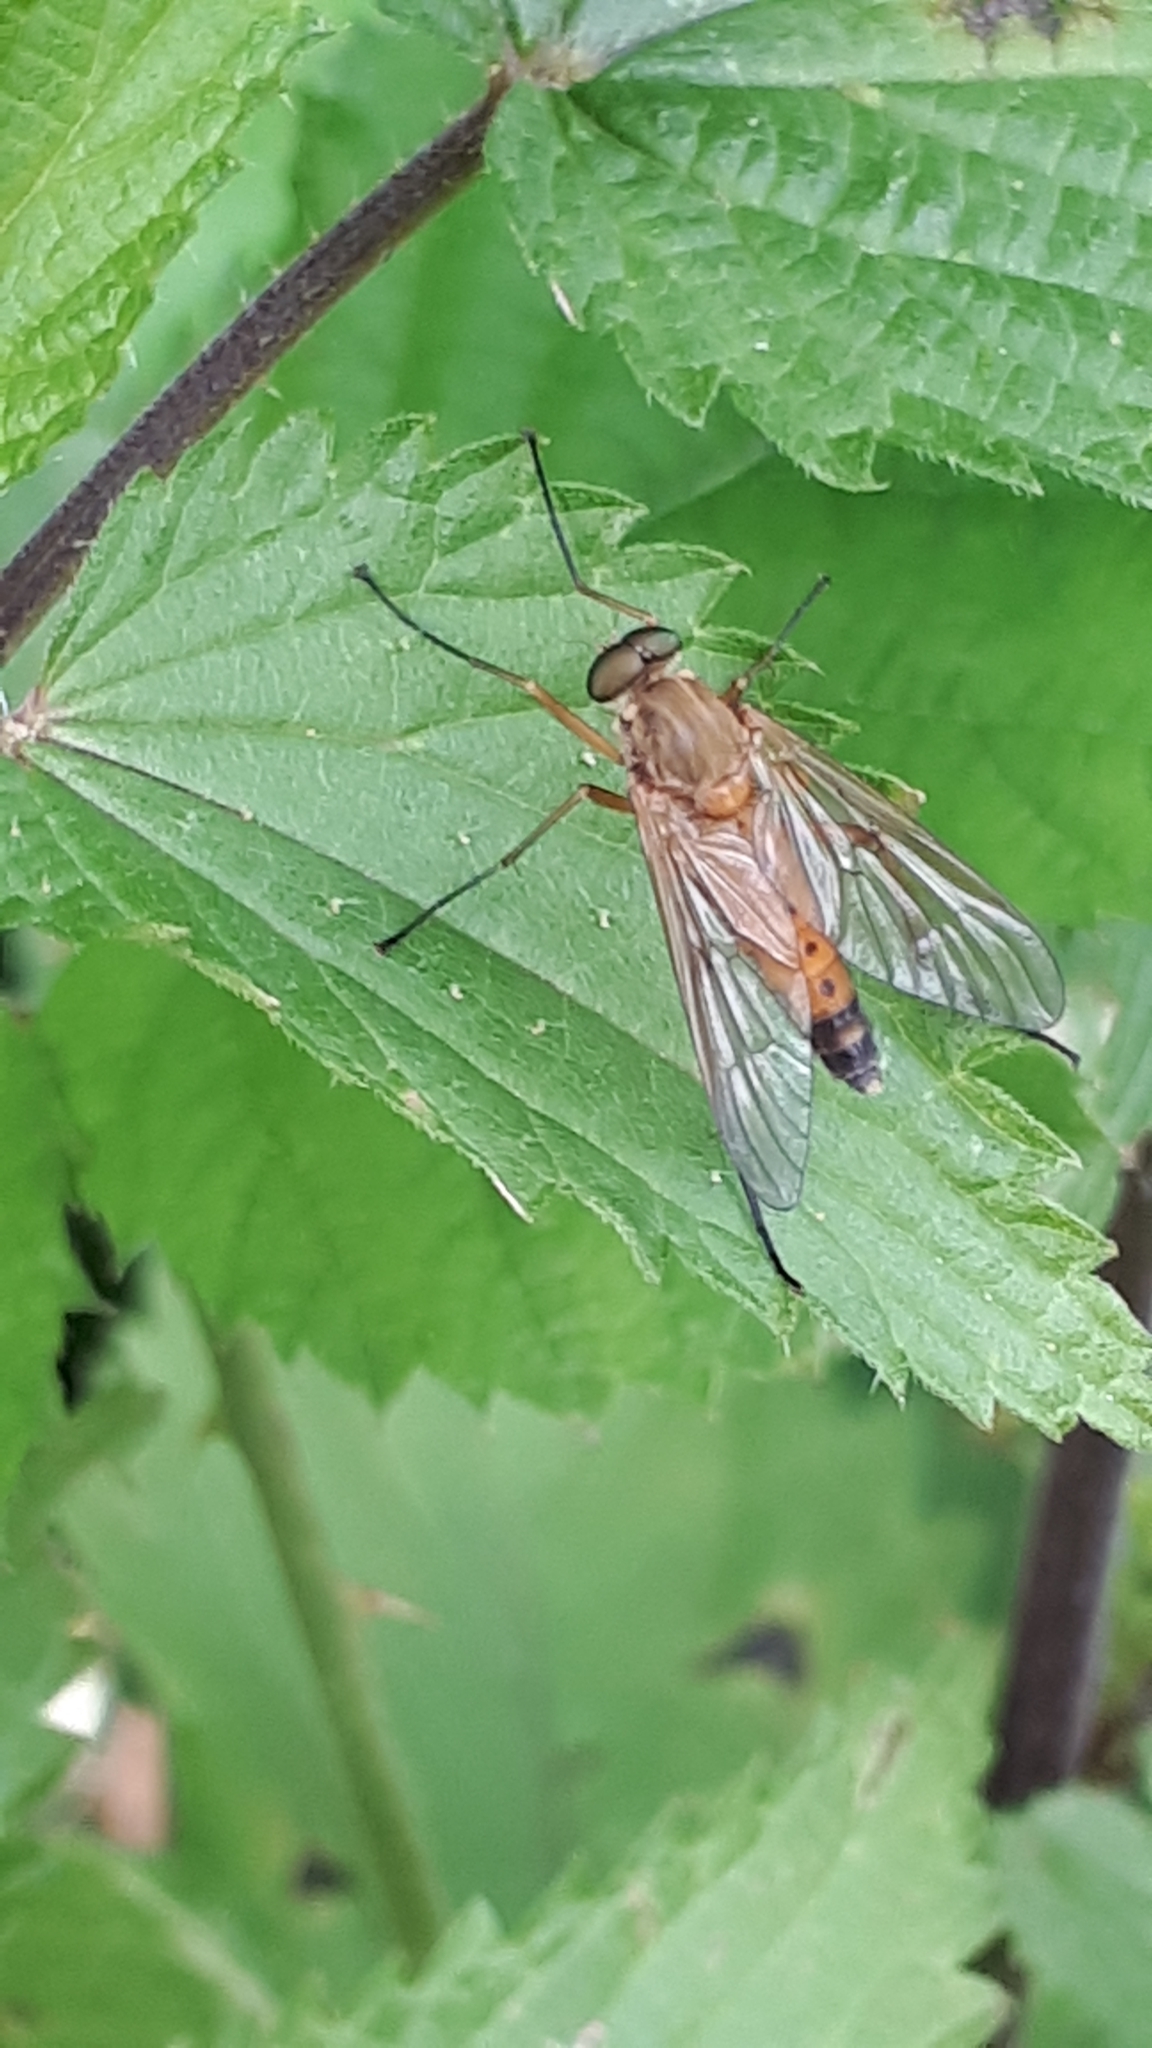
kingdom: Animalia
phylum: Arthropoda
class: Insecta
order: Diptera
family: Rhagionidae
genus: Rhagio
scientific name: Rhagio tringaria
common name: Marsh snipefly
